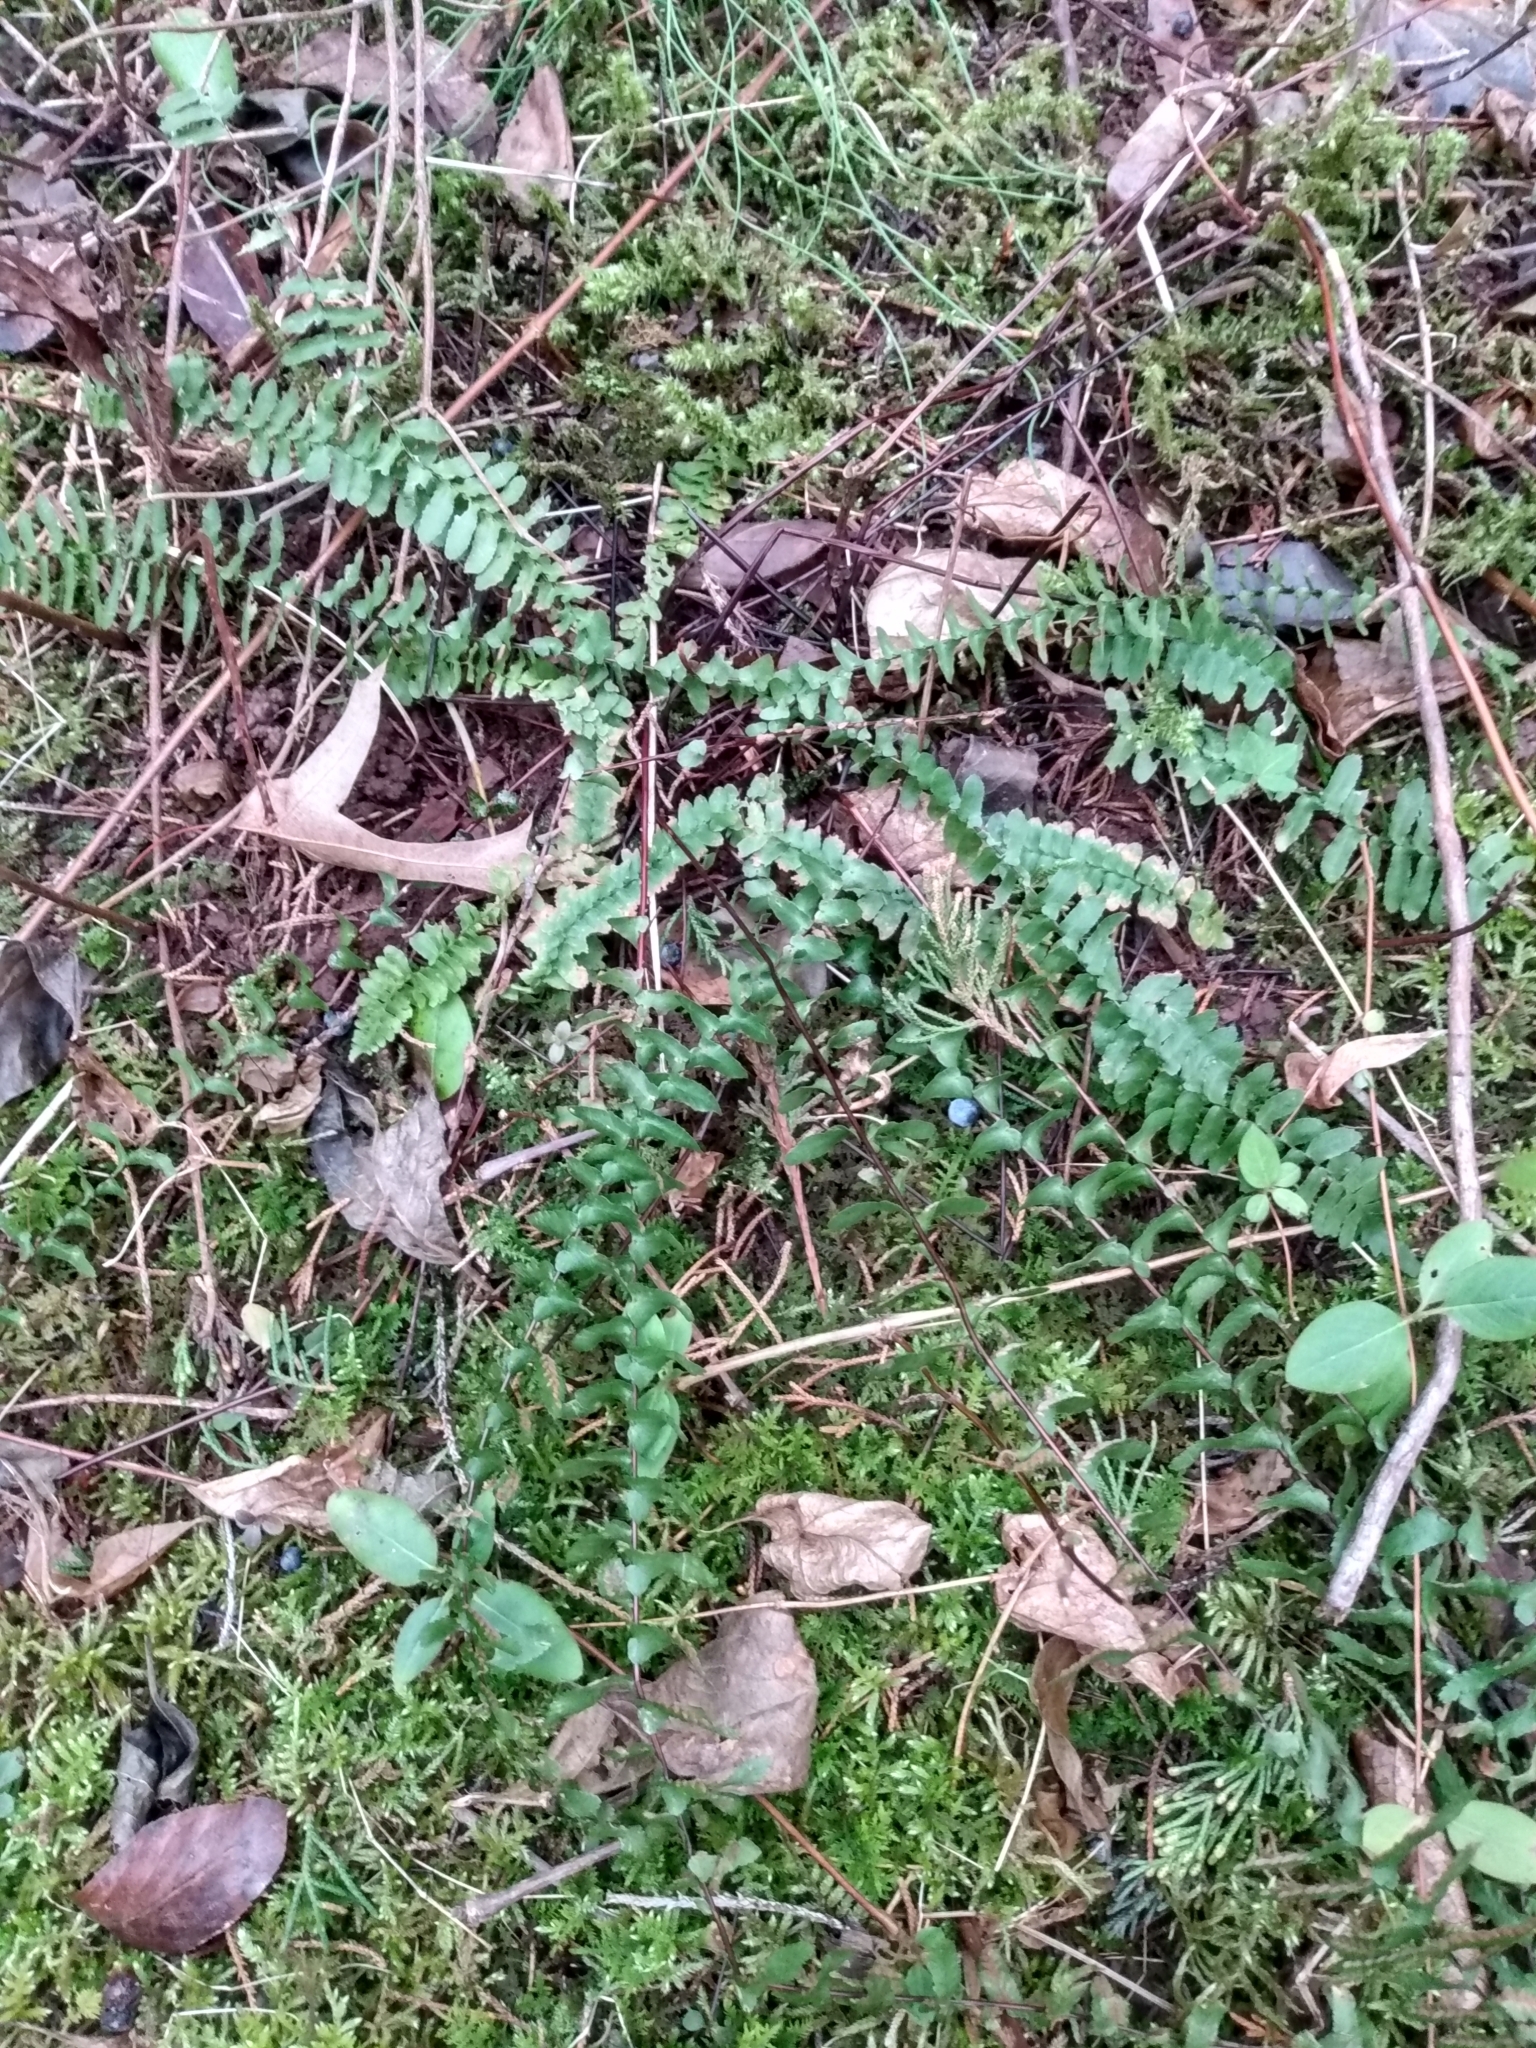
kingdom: Plantae
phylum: Tracheophyta
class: Polypodiopsida
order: Polypodiales
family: Aspleniaceae
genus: Asplenium
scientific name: Asplenium platyneuron
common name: Ebony spleenwort
